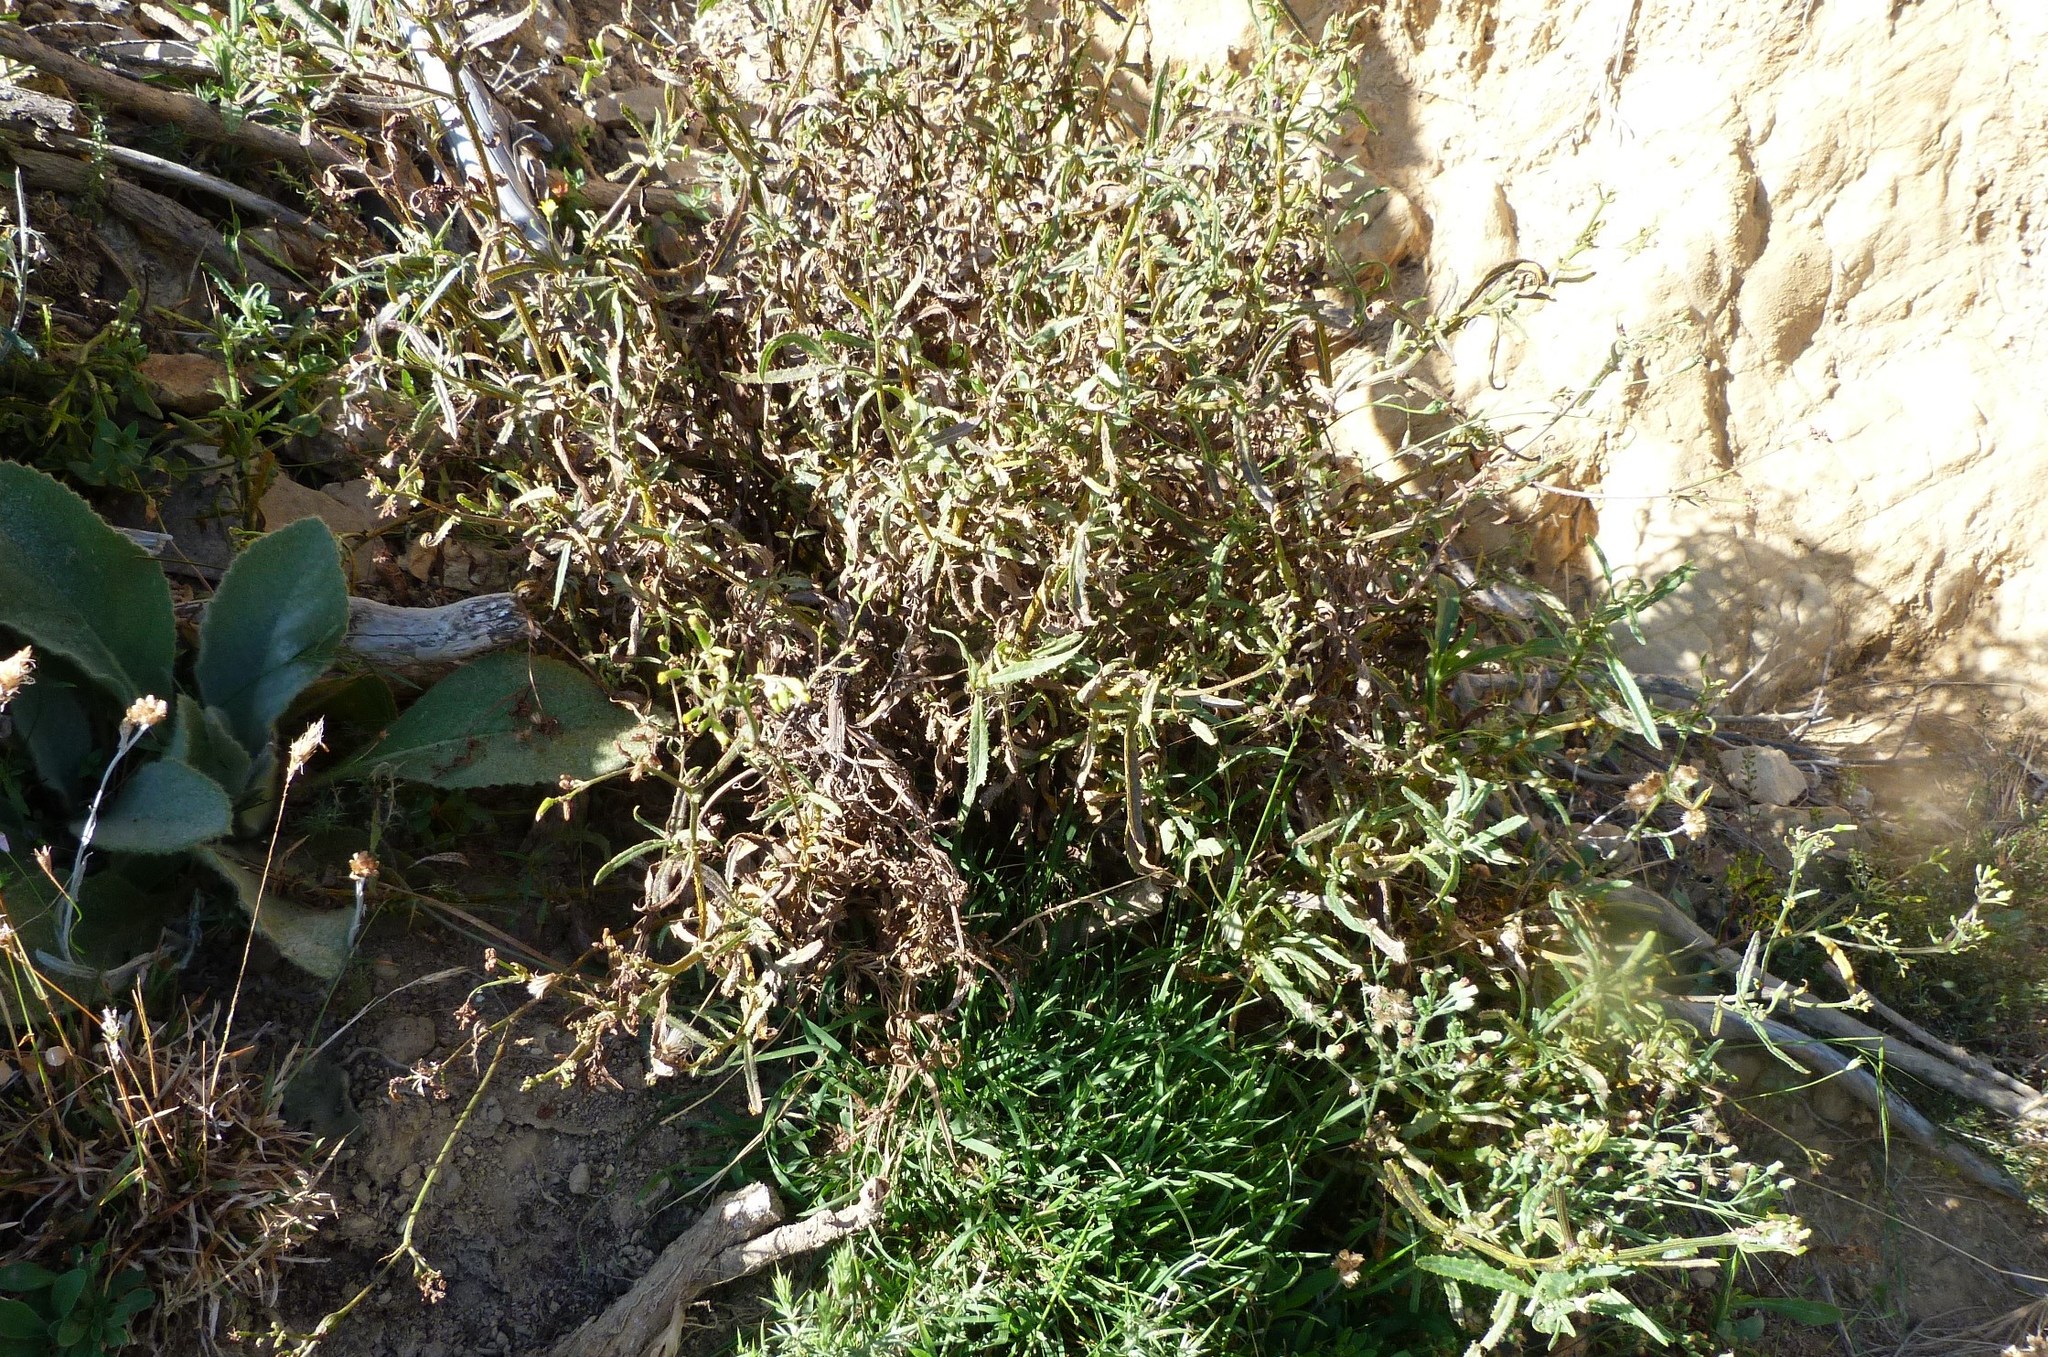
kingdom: Plantae
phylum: Tracheophyta
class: Magnoliopsida
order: Asterales
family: Asteraceae
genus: Senecio
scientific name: Senecio minimus
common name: Toothed fireweed
